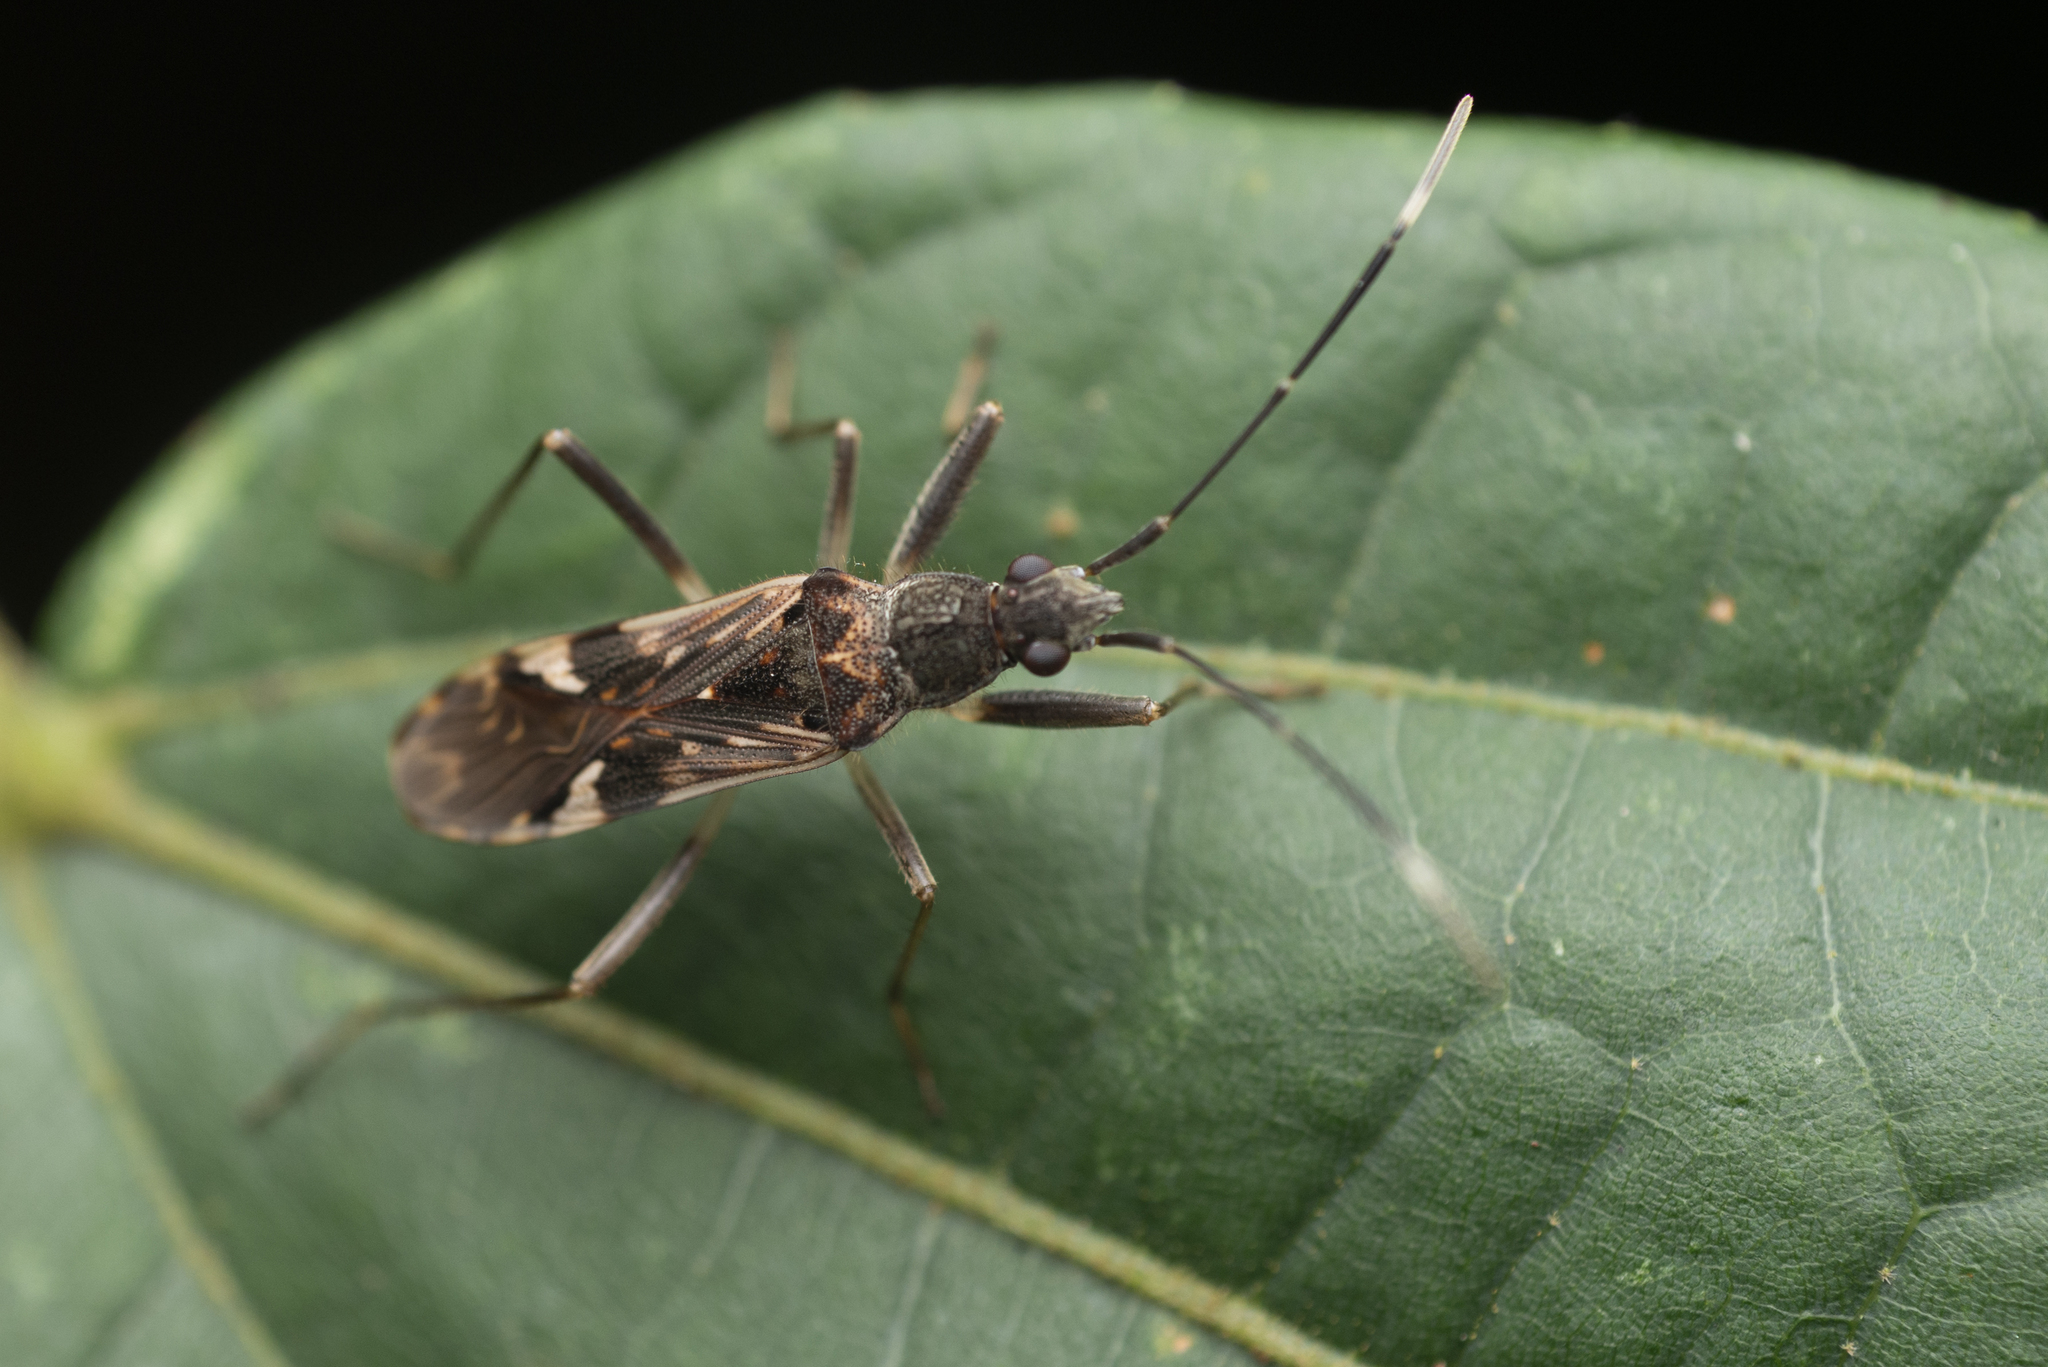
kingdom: Animalia
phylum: Arthropoda
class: Insecta
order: Hemiptera
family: Rhyparochromidae
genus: Metochus
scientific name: Metochus hainanensis
